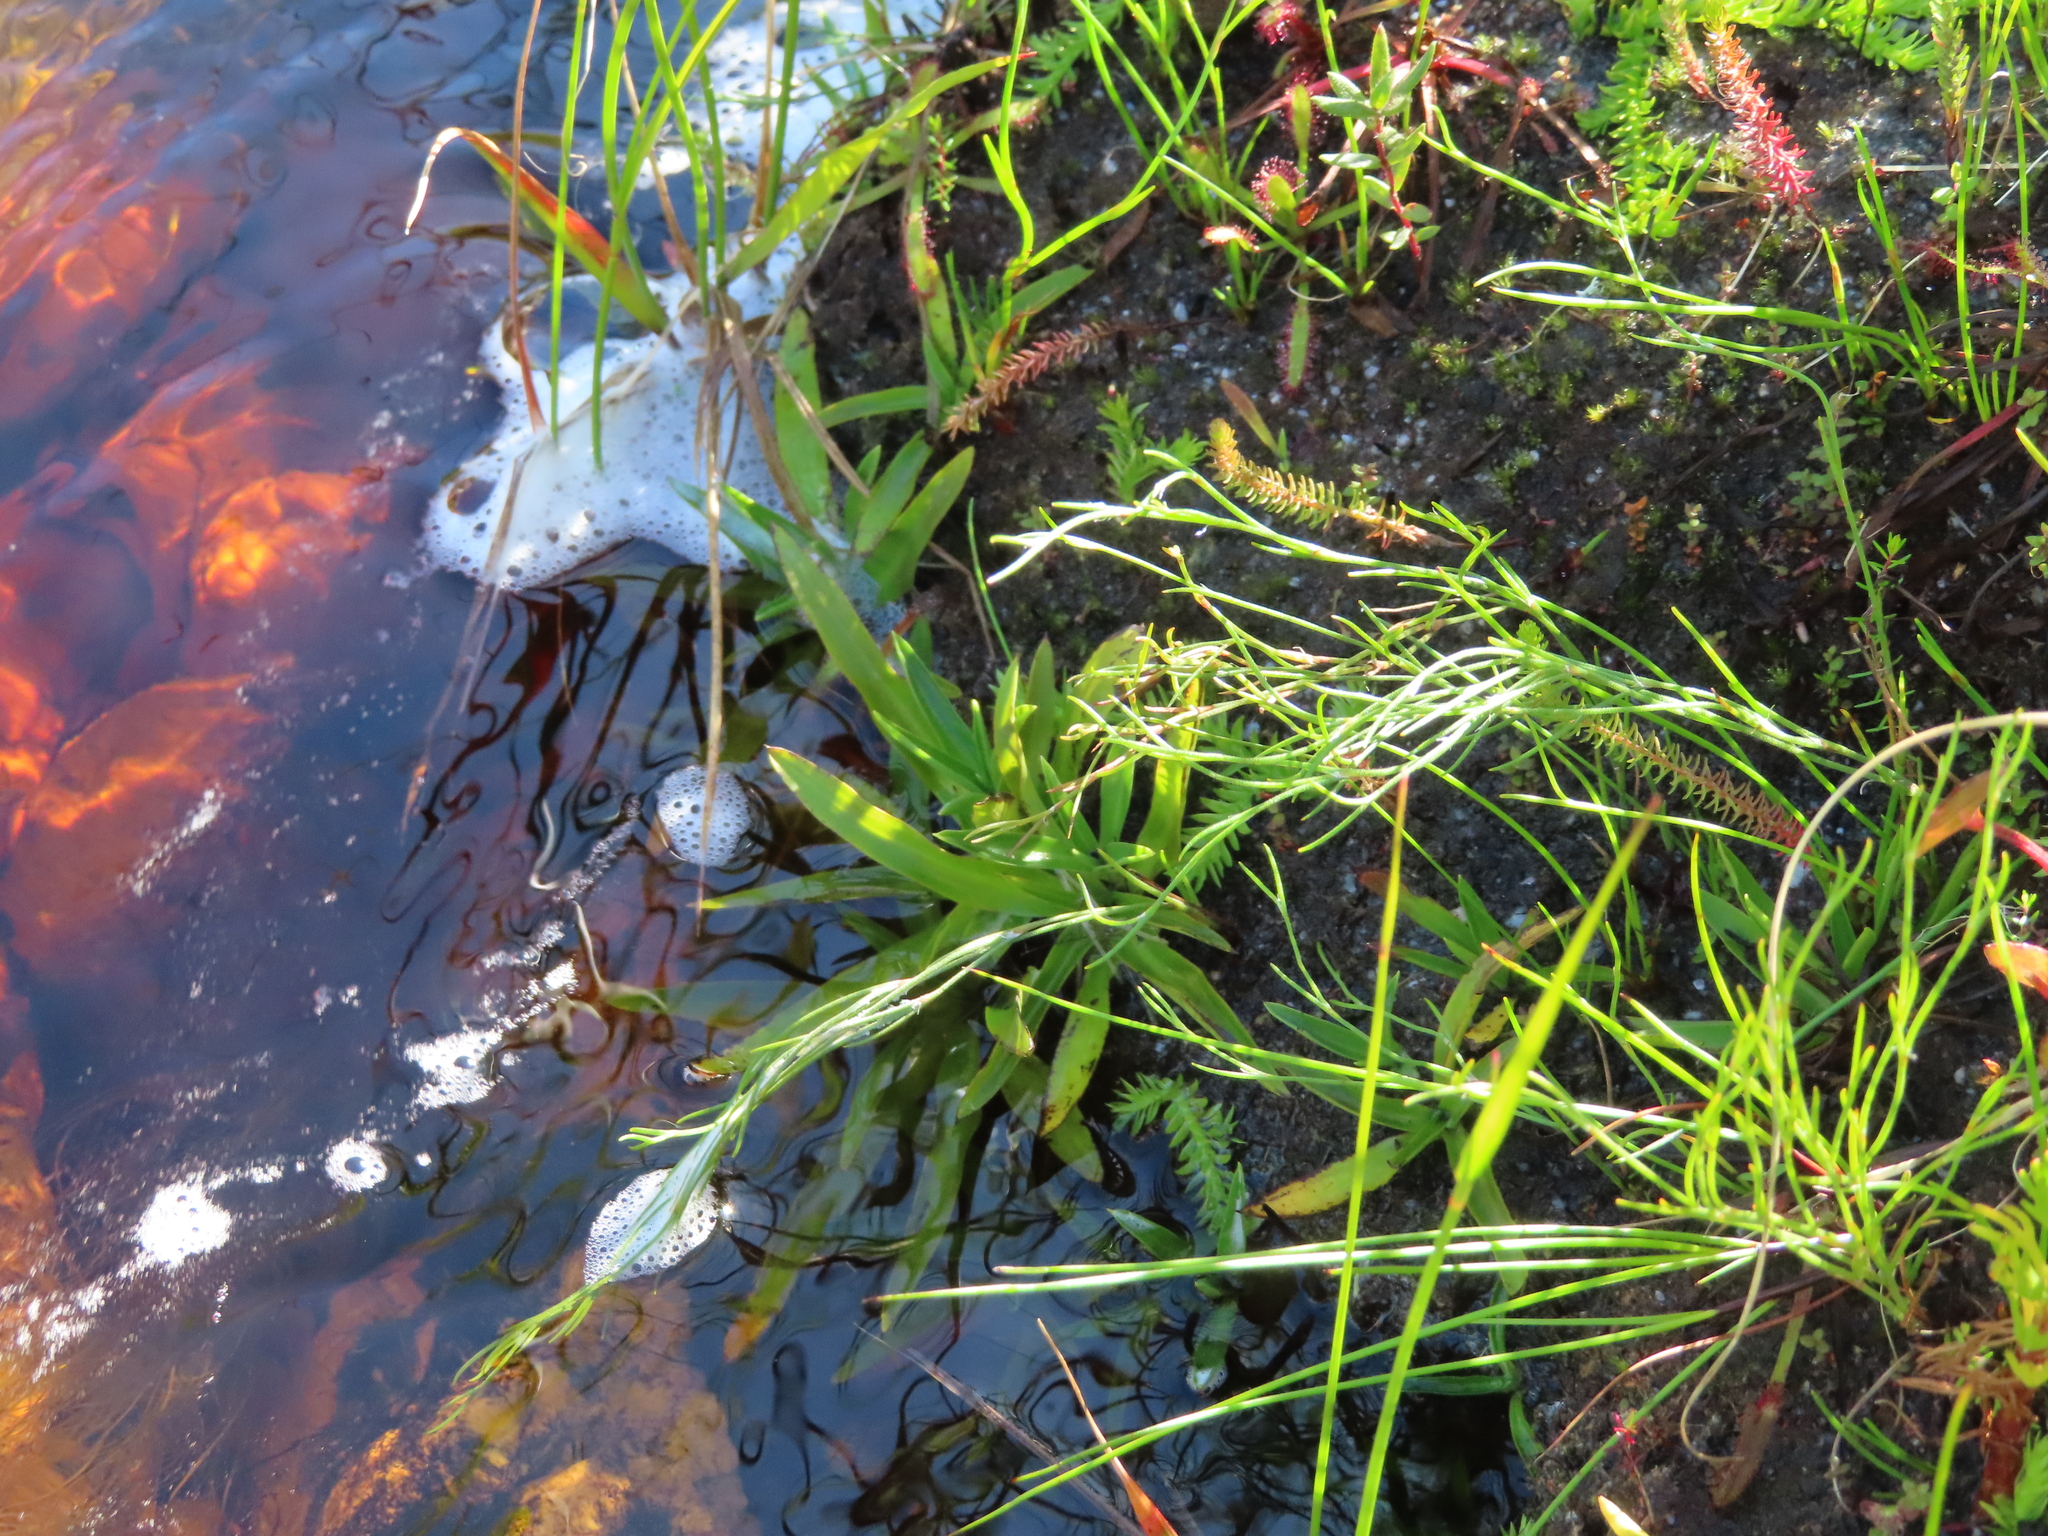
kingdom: Plantae
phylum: Tracheophyta
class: Liliopsida
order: Asparagales
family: Orchidaceae
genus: Disa
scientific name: Disa tripetaloides
